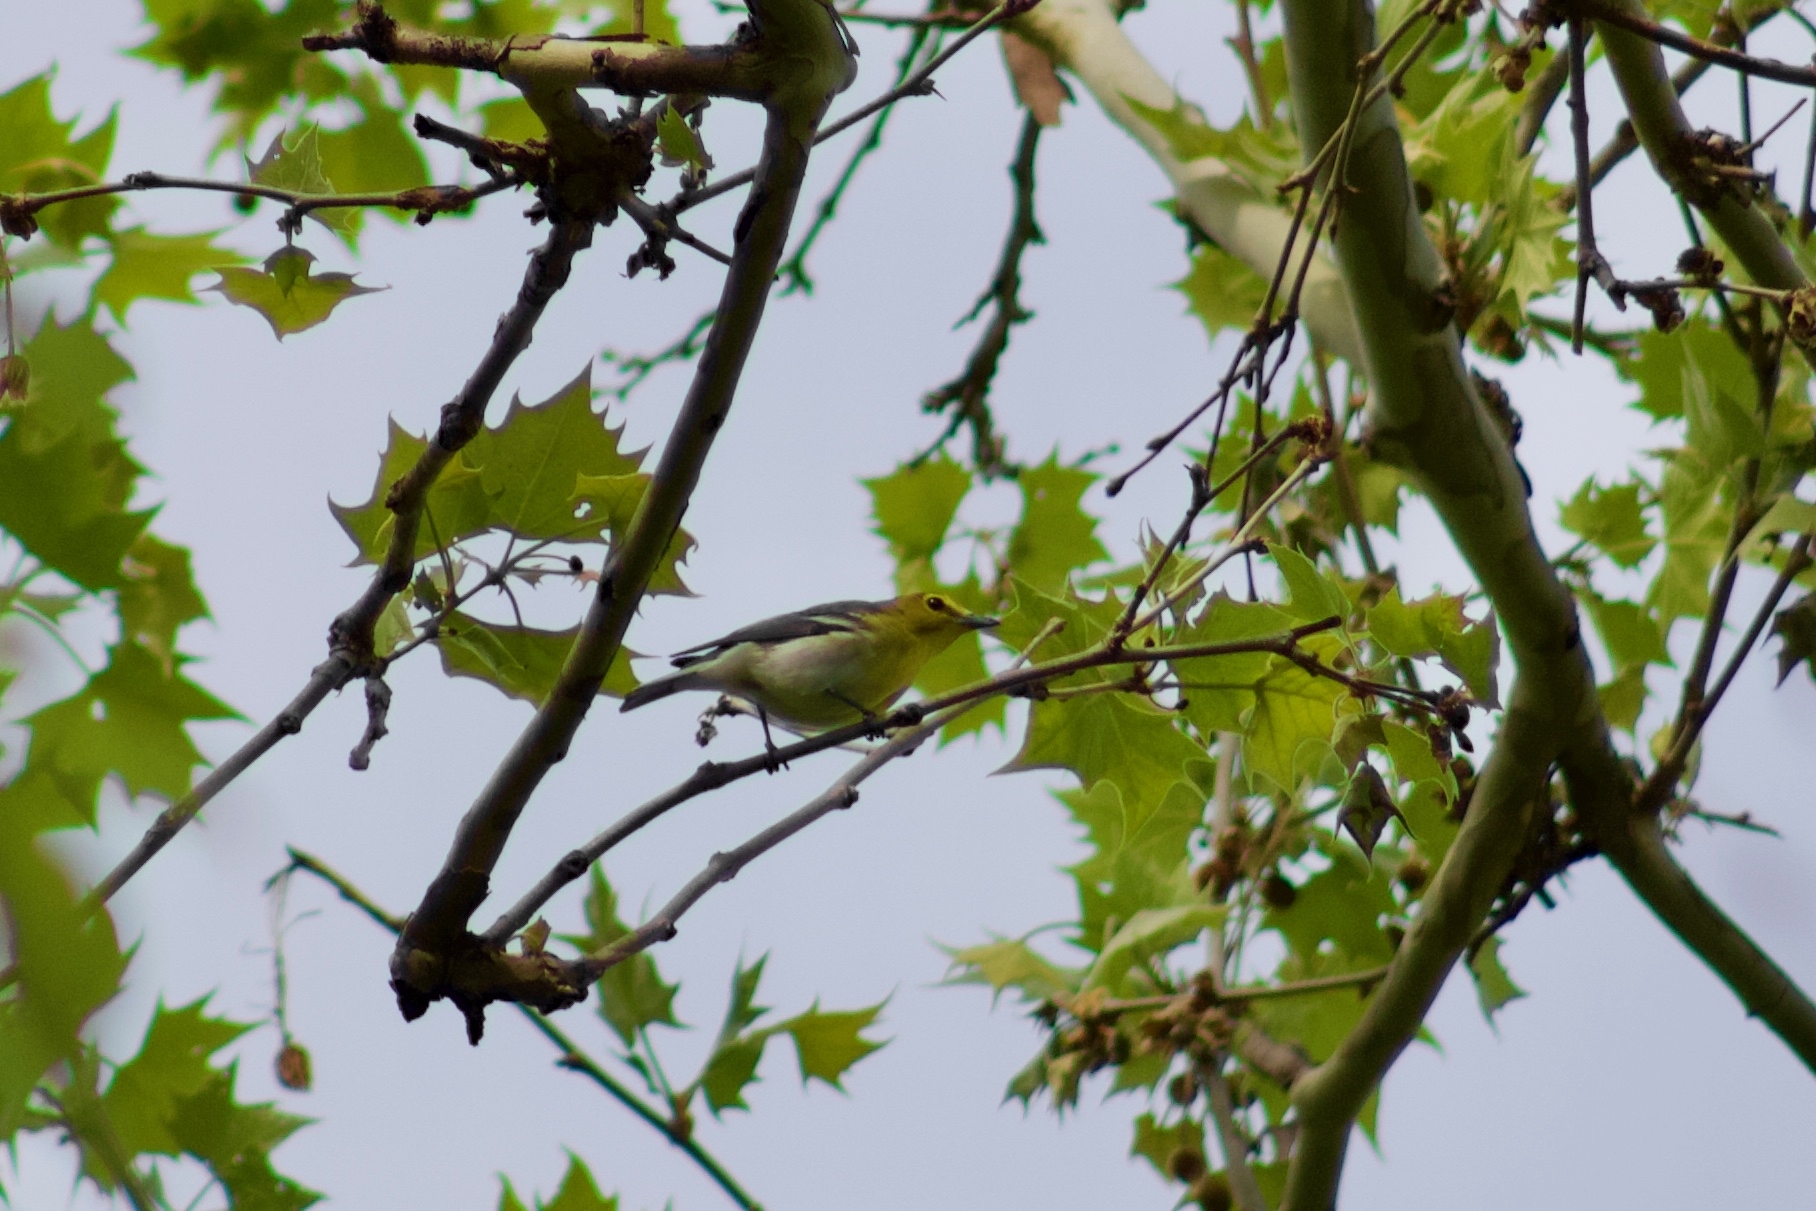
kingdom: Animalia
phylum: Chordata
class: Aves
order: Passeriformes
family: Vireonidae
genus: Vireo
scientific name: Vireo flavifrons
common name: Yellow-throated vireo
